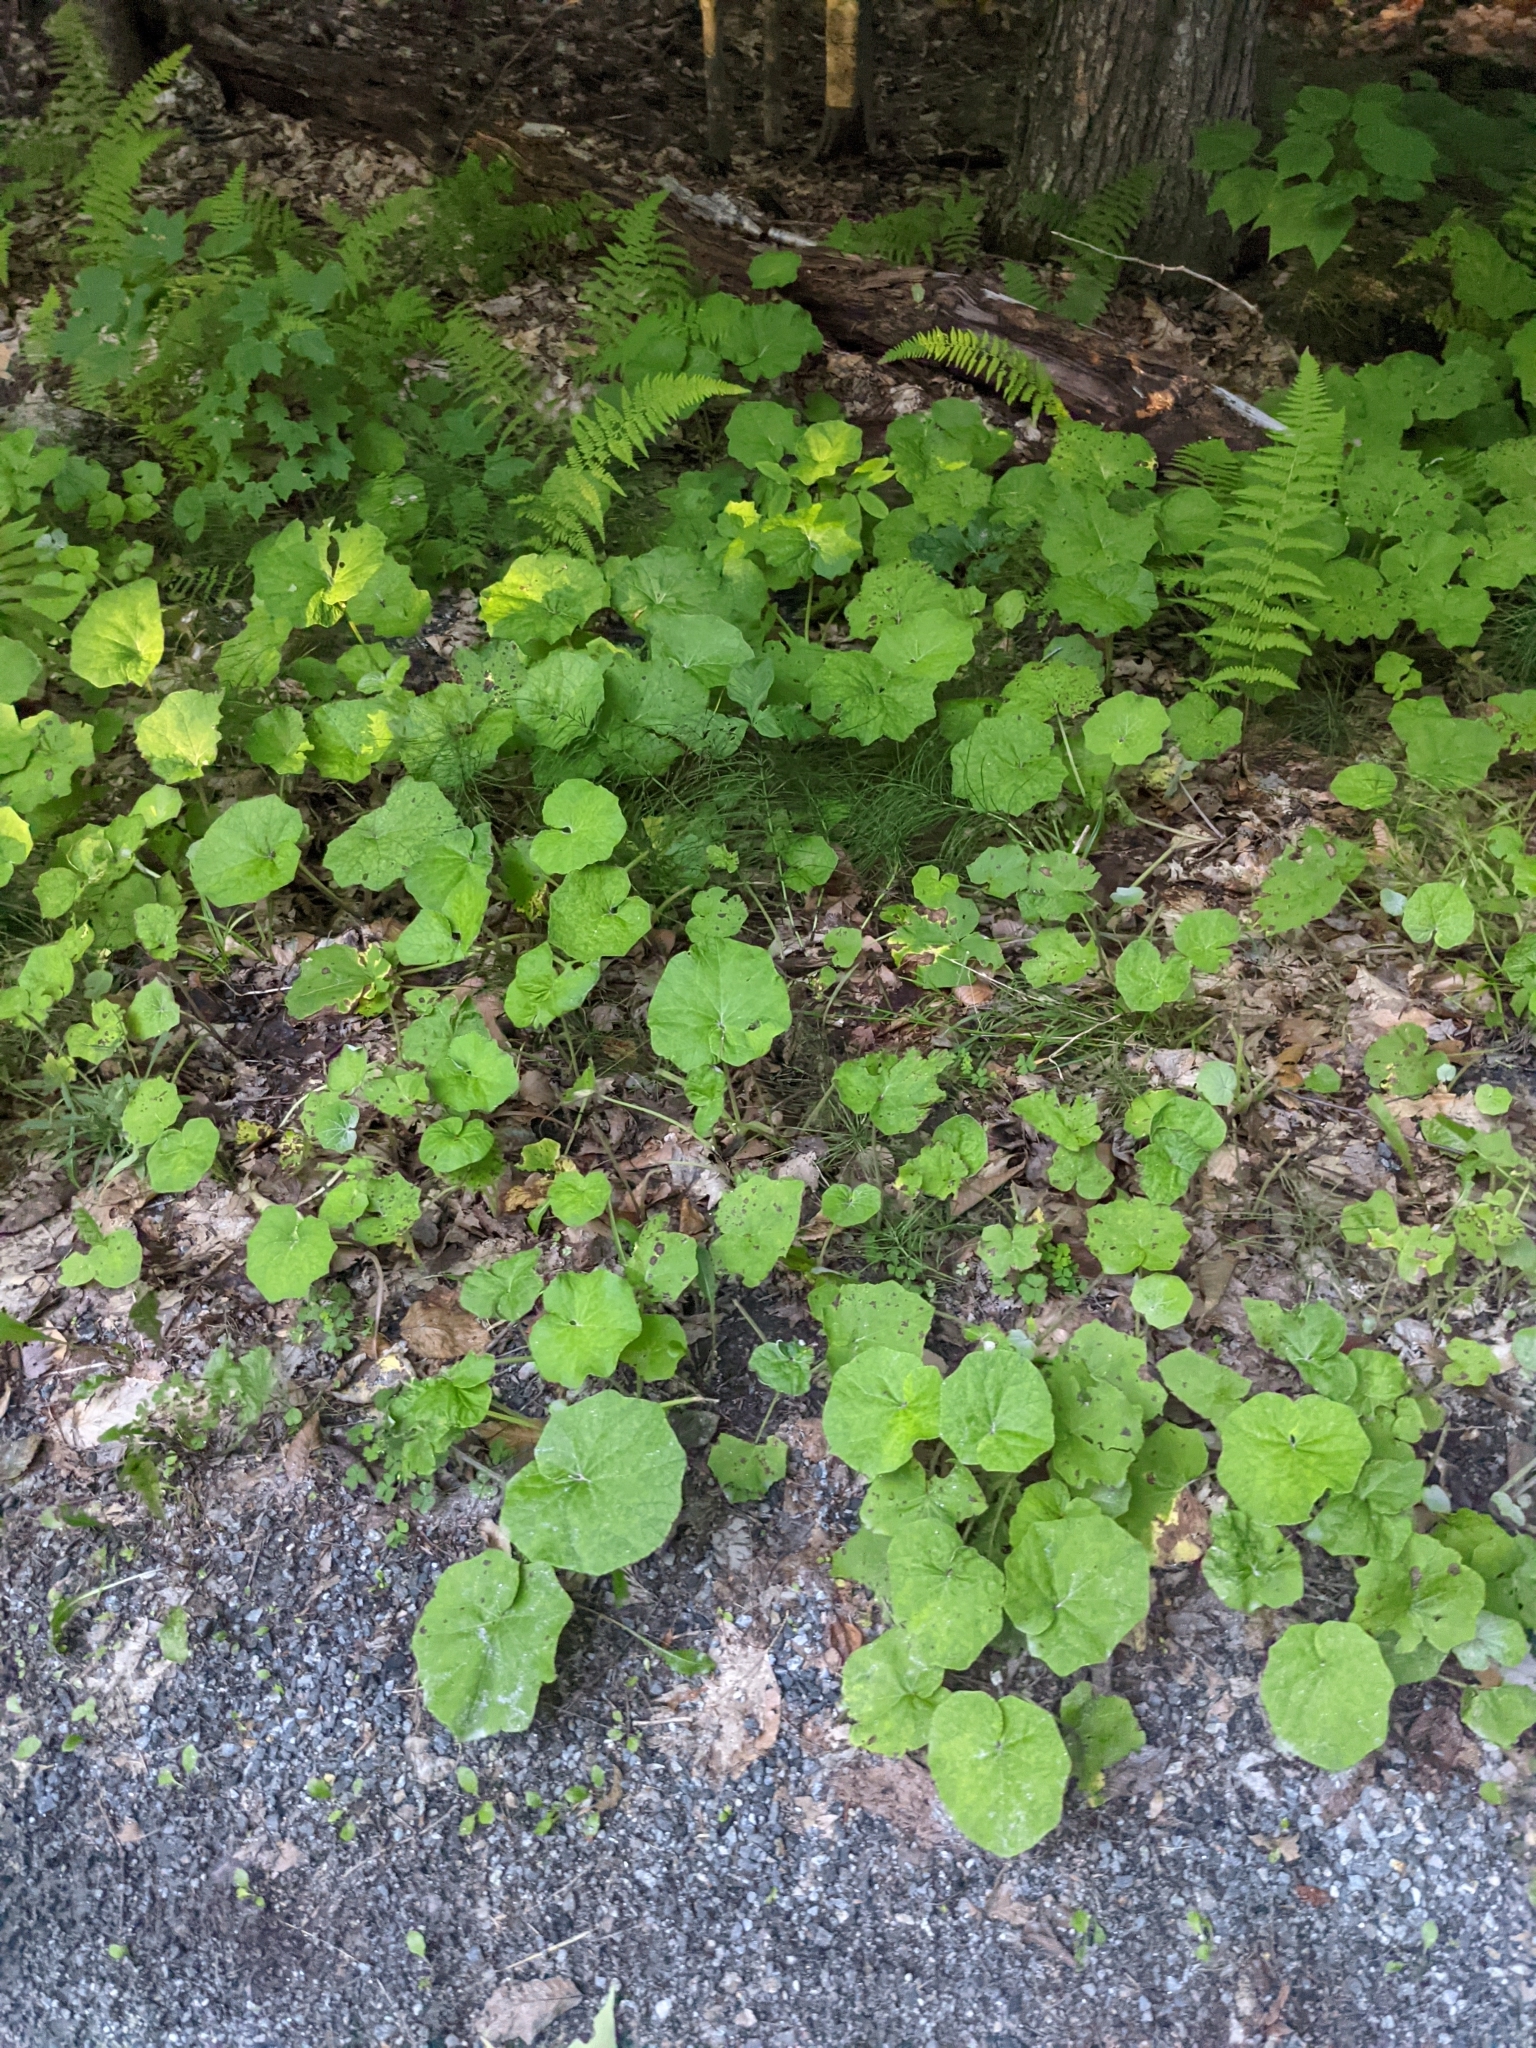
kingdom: Plantae
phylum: Tracheophyta
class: Magnoliopsida
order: Asterales
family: Asteraceae
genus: Tussilago
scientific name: Tussilago farfara
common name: Coltsfoot
